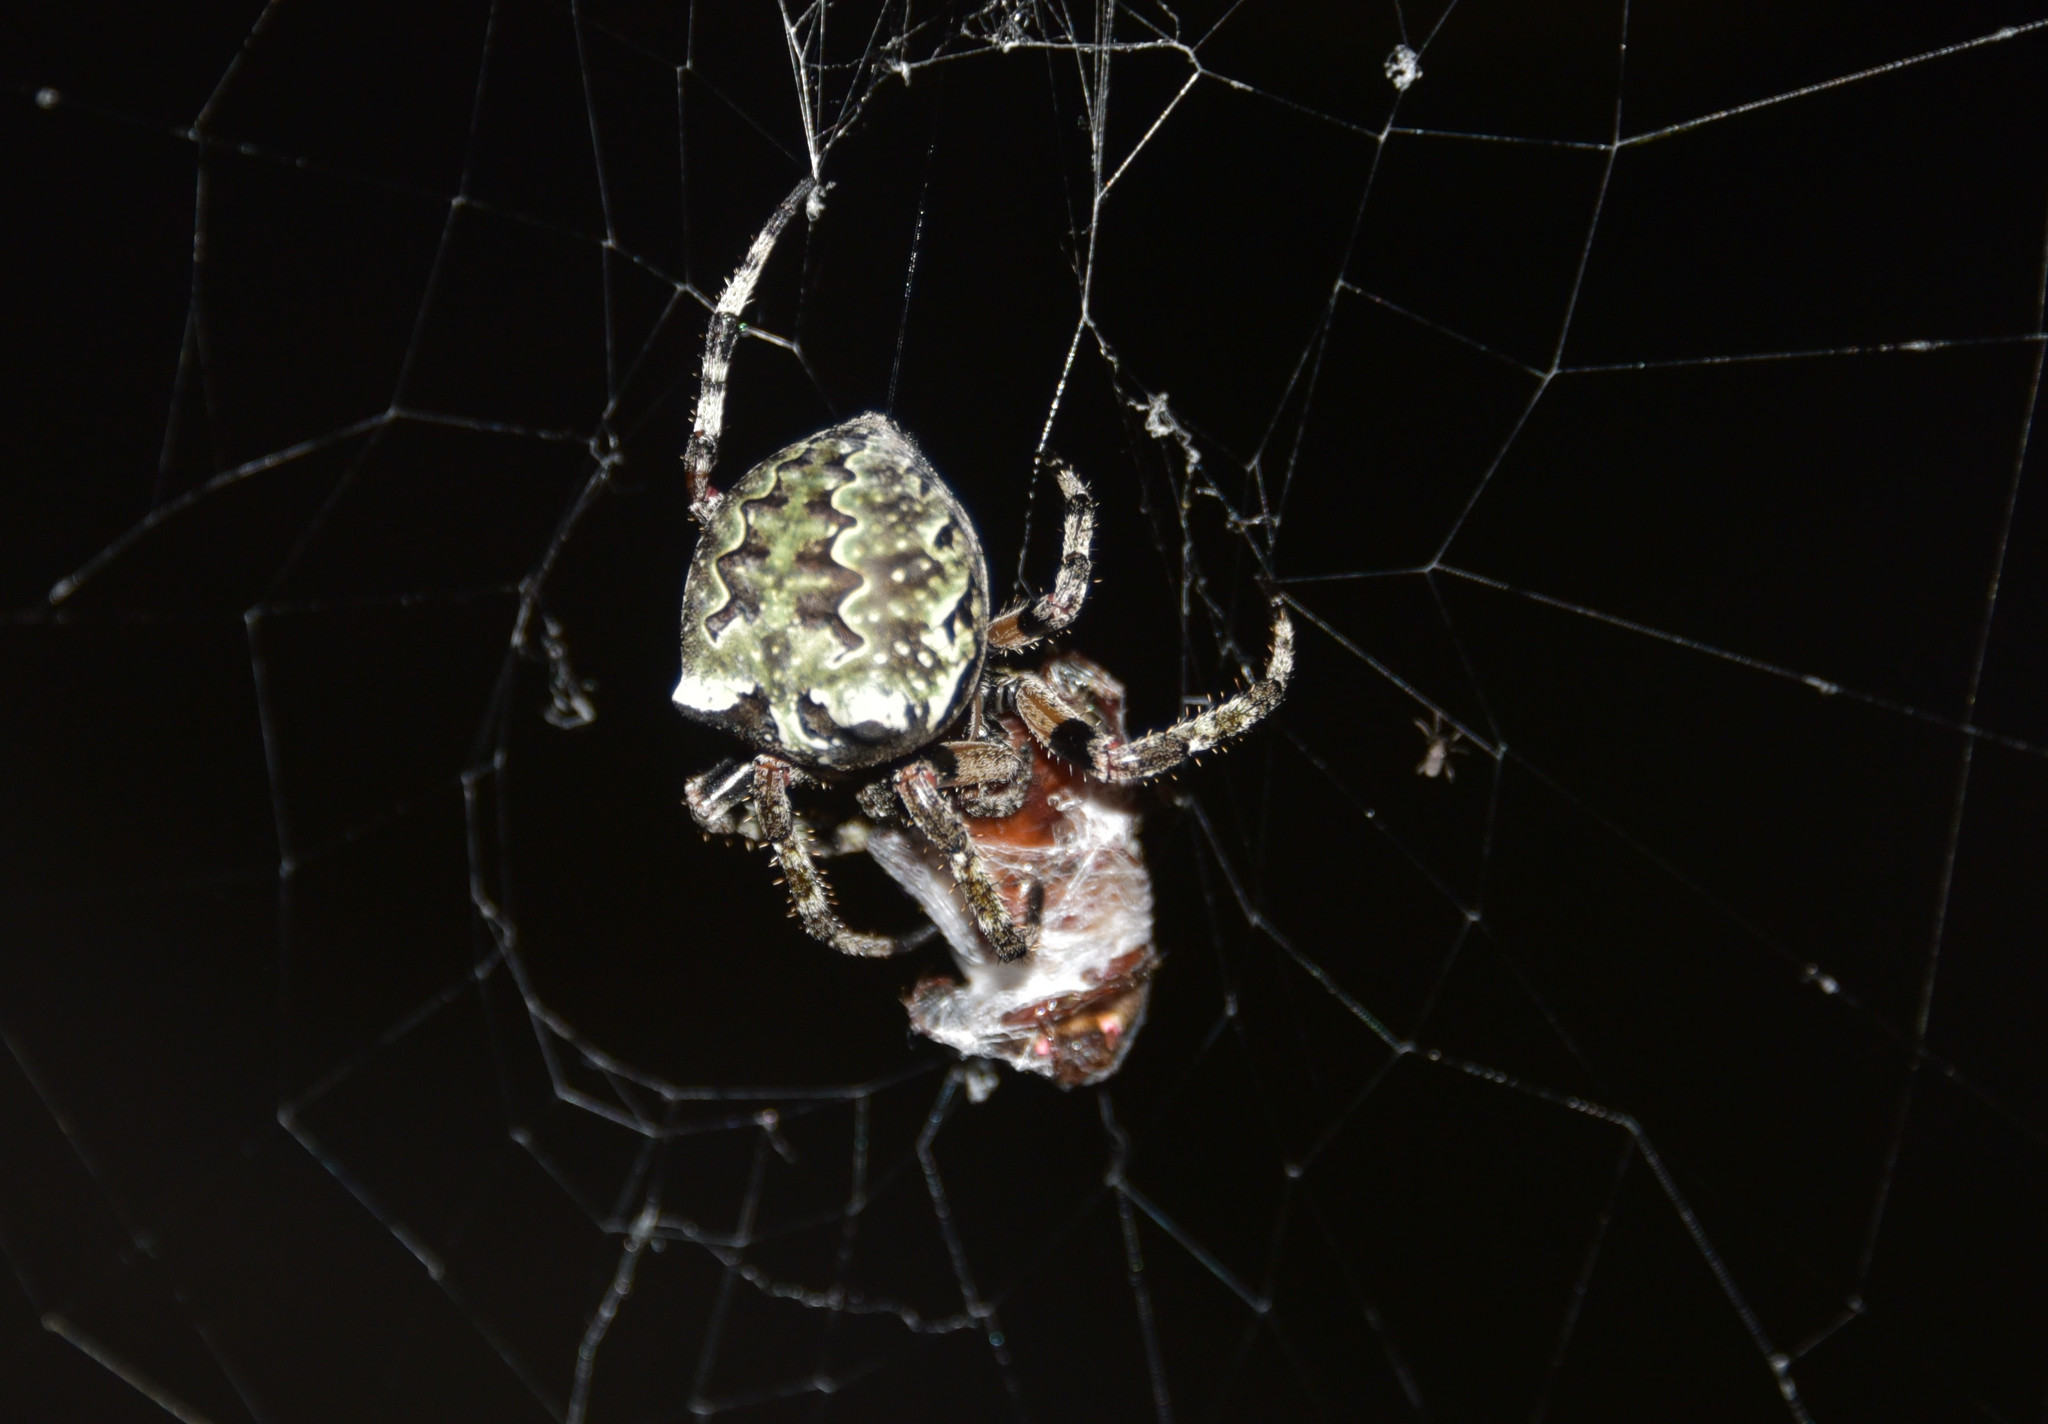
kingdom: Animalia
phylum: Arthropoda
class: Arachnida
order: Araneae
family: Araneidae
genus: Araneus
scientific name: Araneus bicentenarius
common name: Giant lichen orbweaver
